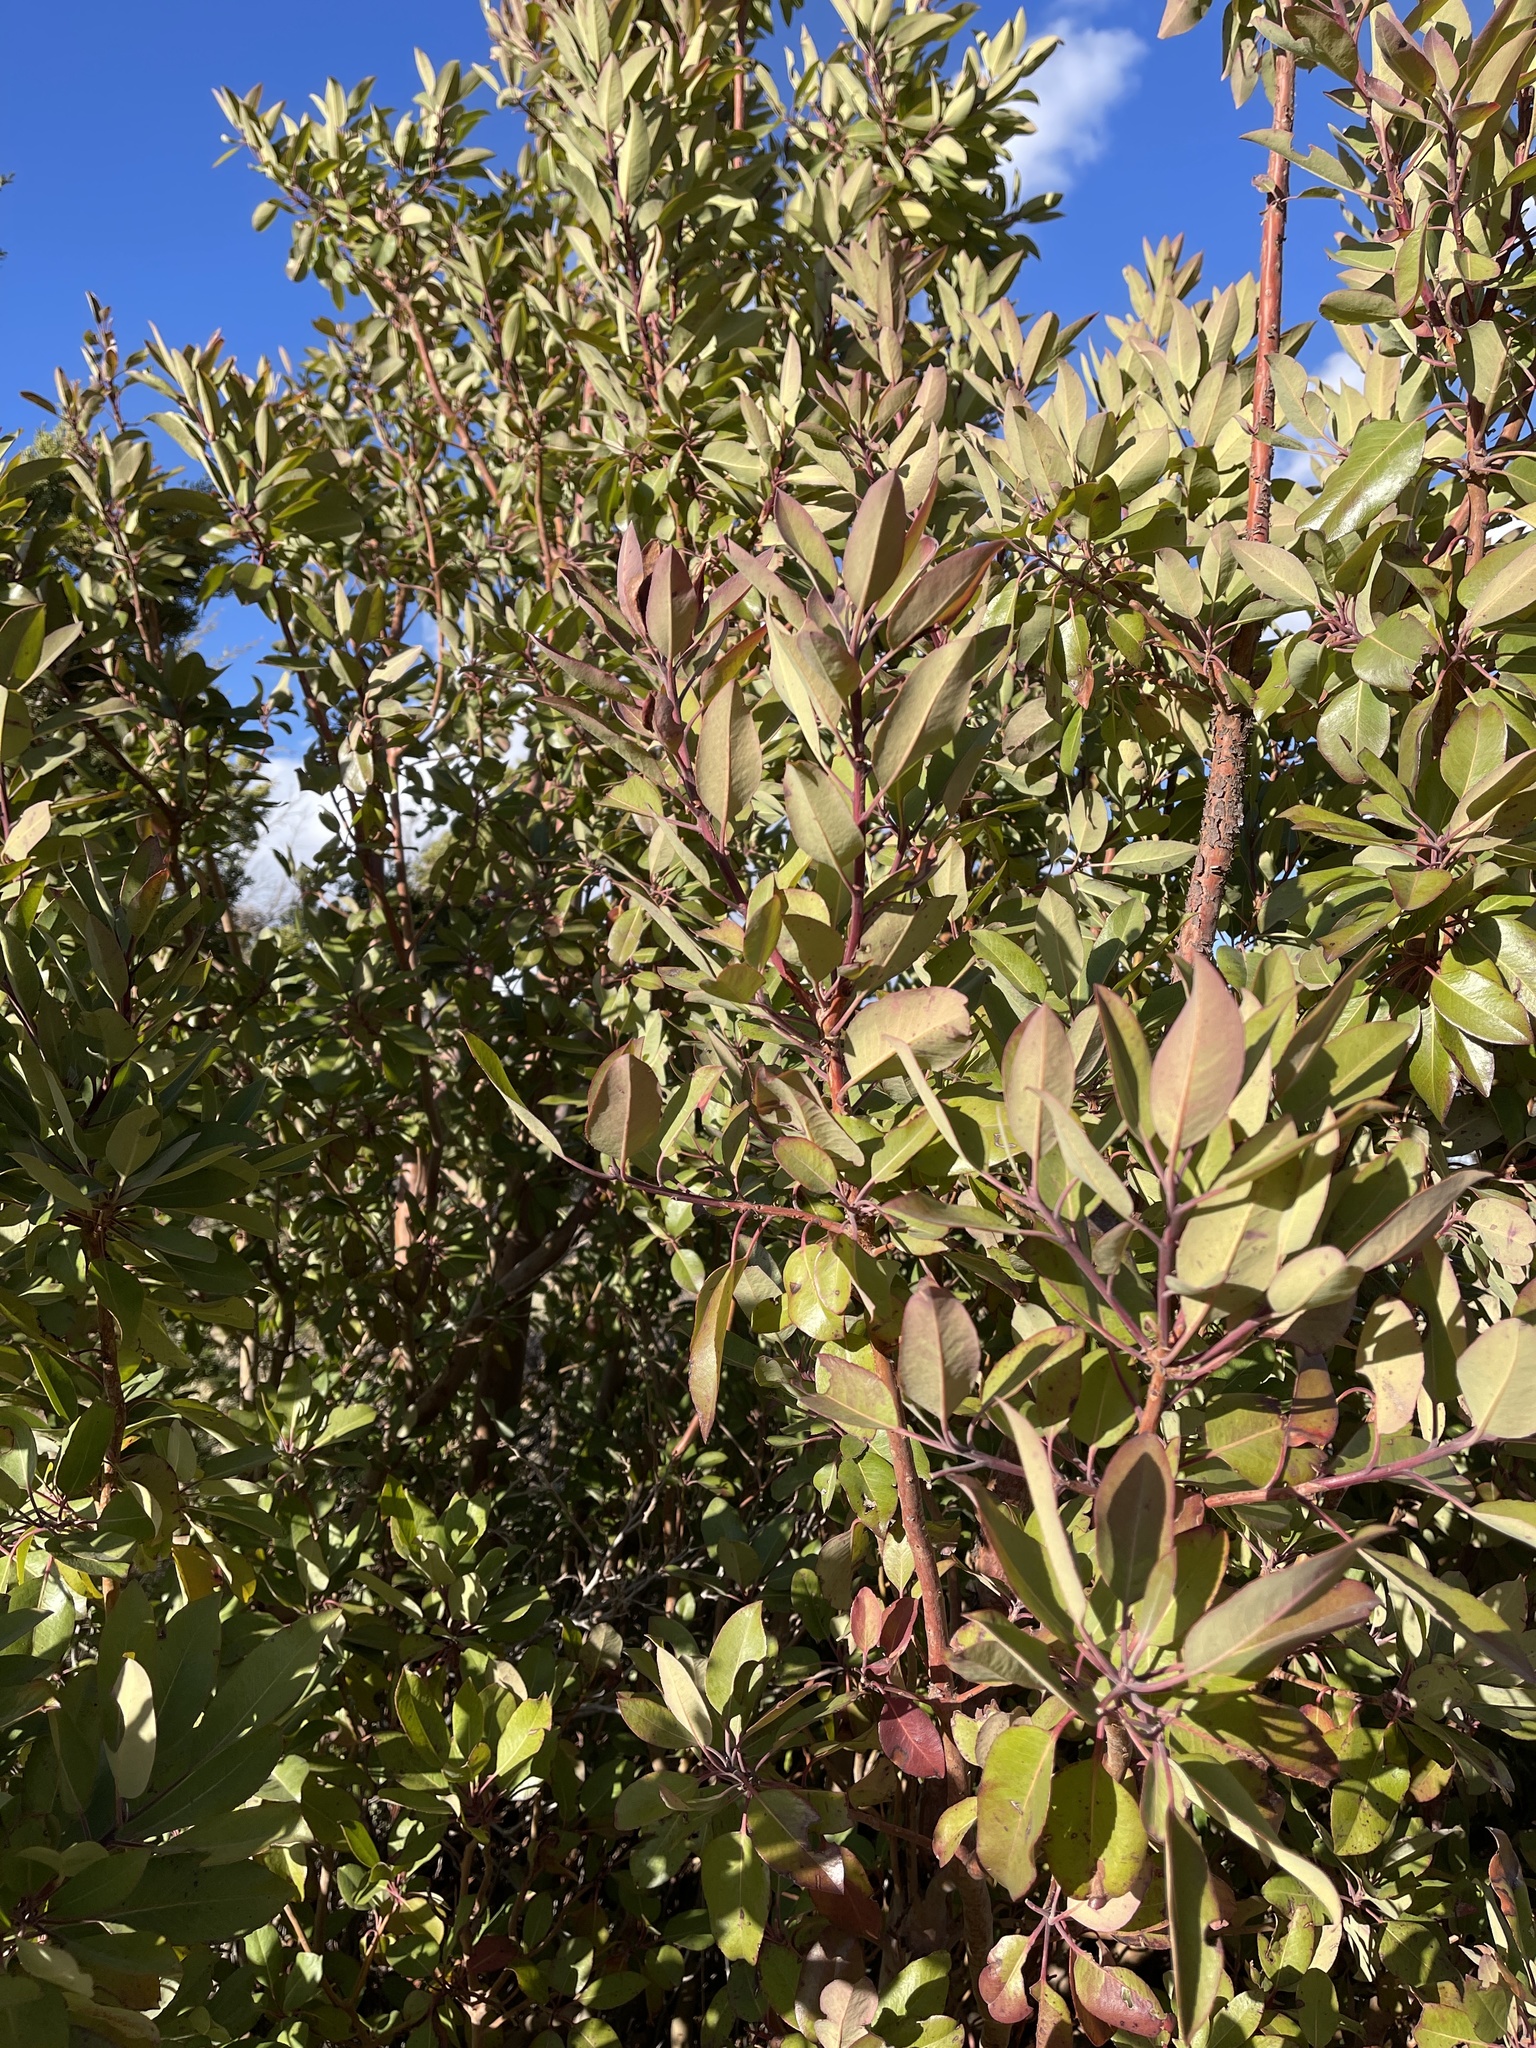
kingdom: Plantae
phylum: Tracheophyta
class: Magnoliopsida
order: Ericales
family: Ericaceae
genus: Arbutus
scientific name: Arbutus xalapensis
